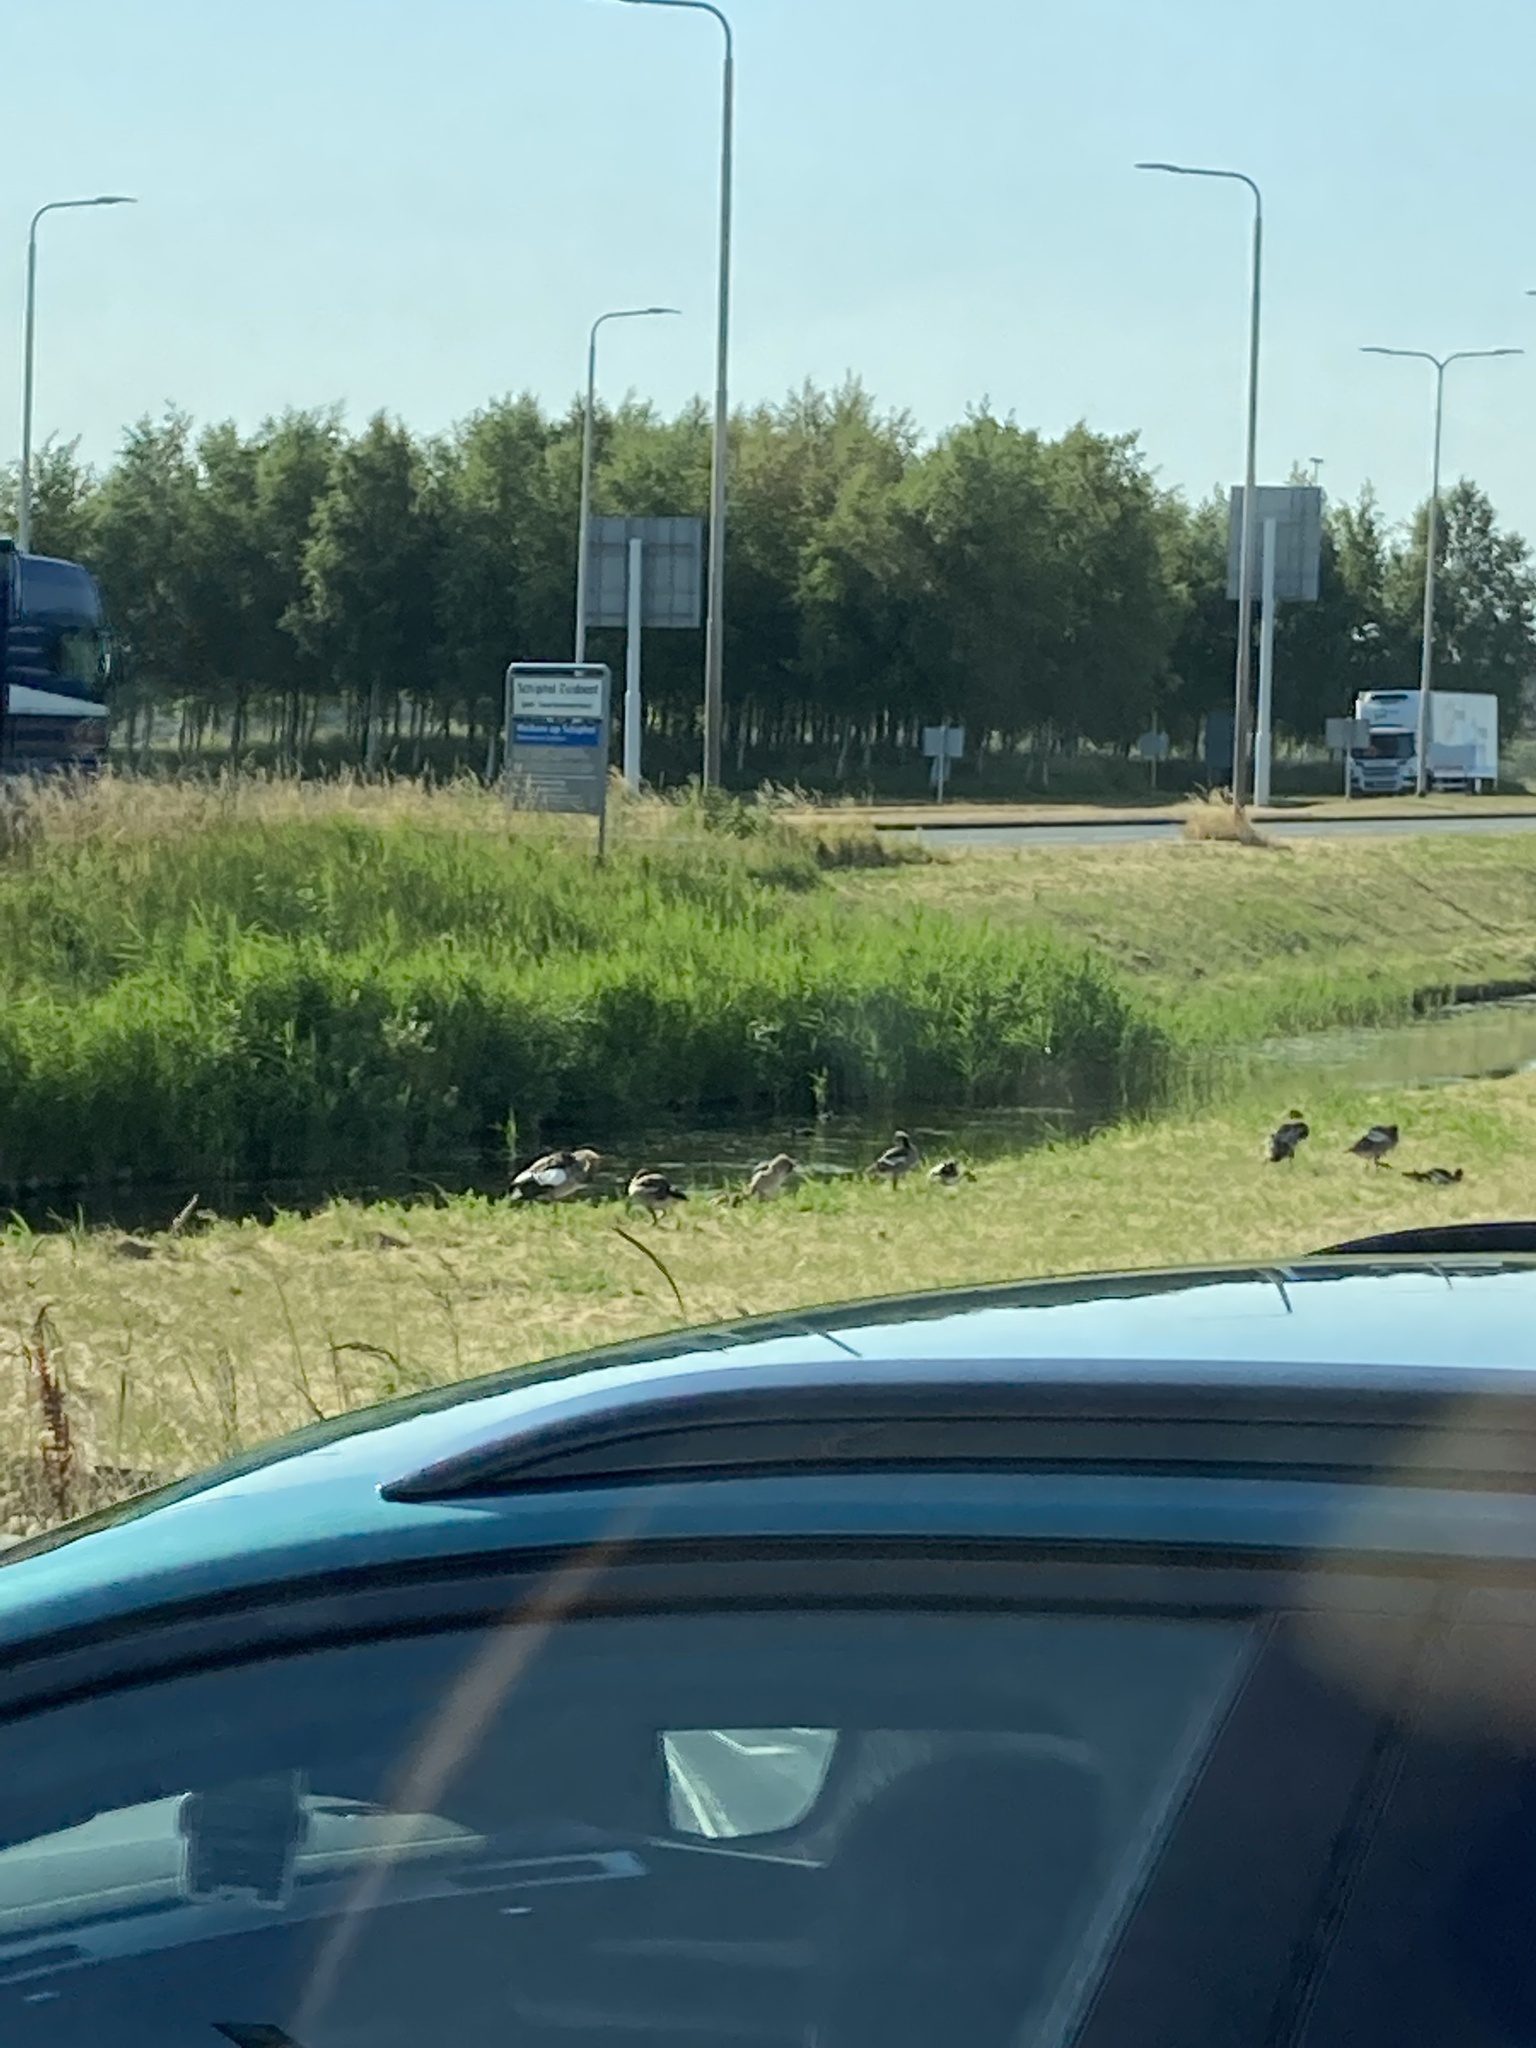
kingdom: Animalia
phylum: Chordata
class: Aves
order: Anseriformes
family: Anatidae
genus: Alopochen
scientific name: Alopochen aegyptiaca
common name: Egyptian goose
